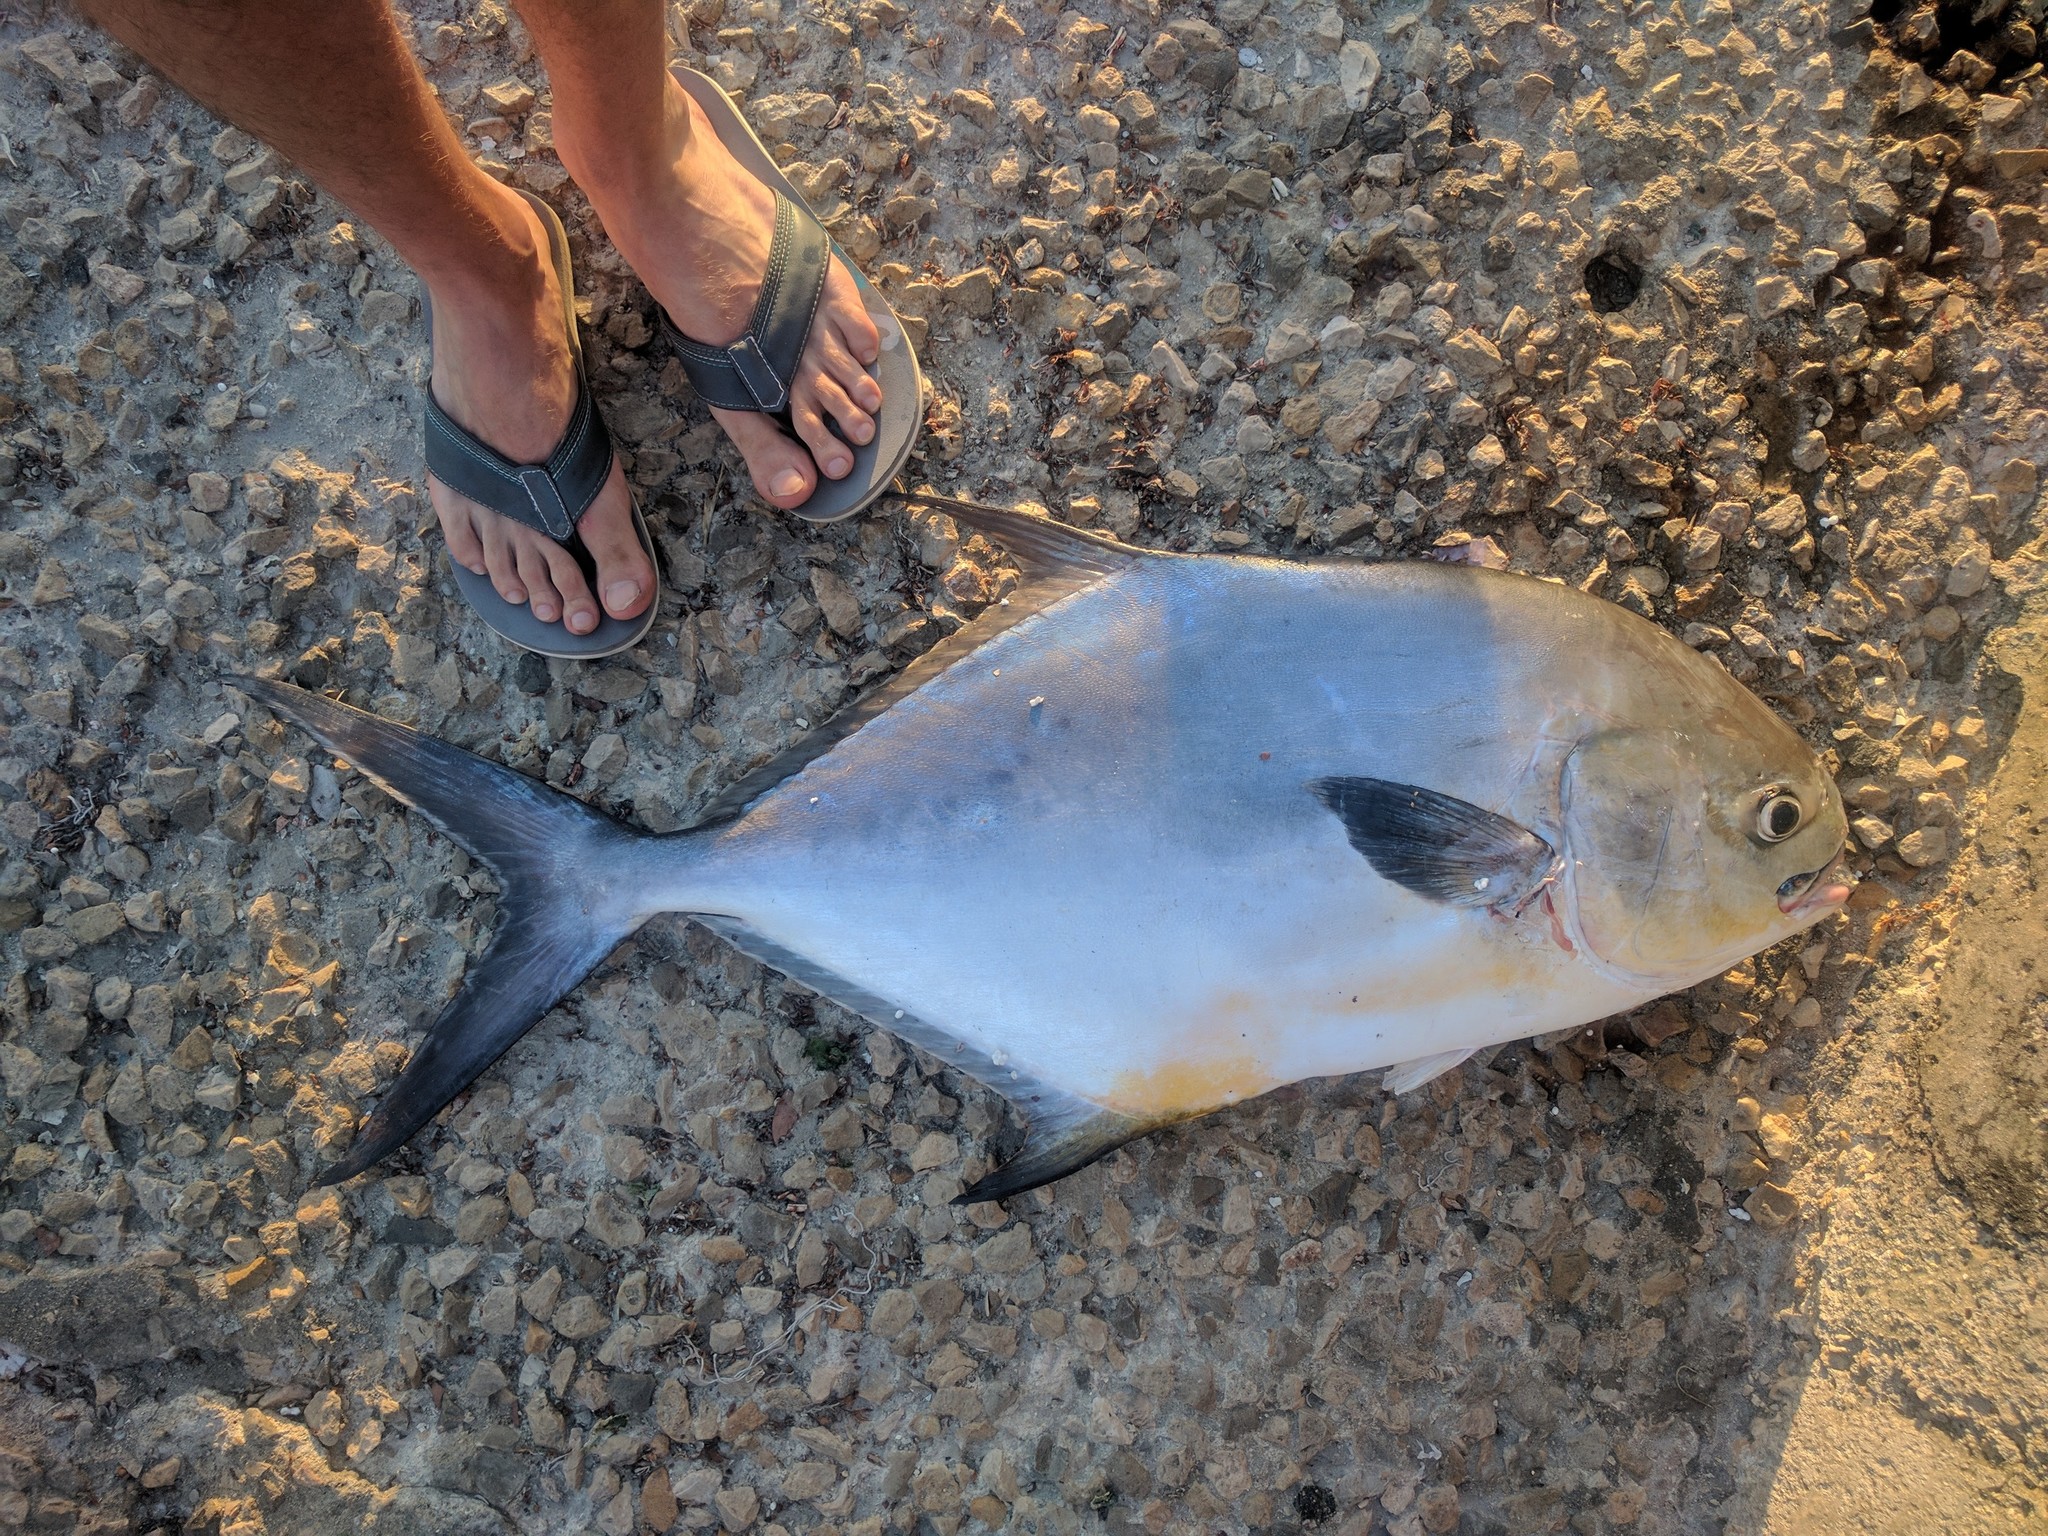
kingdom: Animalia
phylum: Chordata
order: Perciformes
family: Carangidae
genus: Trachinotus
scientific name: Trachinotus falcatus
